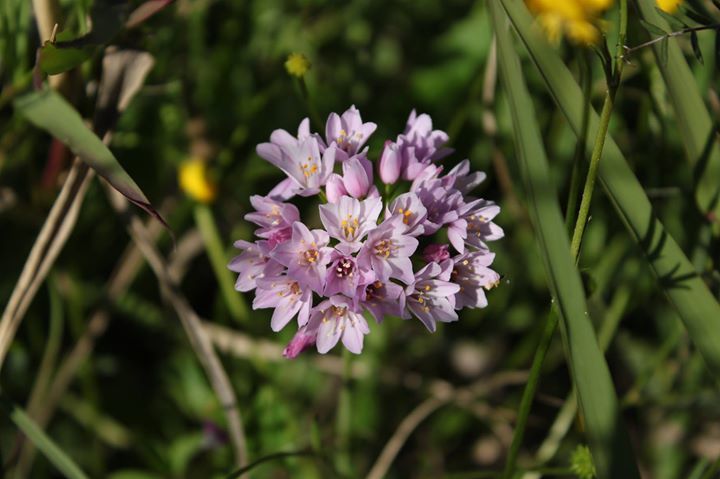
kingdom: Plantae
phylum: Tracheophyta
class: Liliopsida
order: Asparagales
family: Amaryllidaceae
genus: Allium
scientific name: Allium roseum
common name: Rosy garlic
